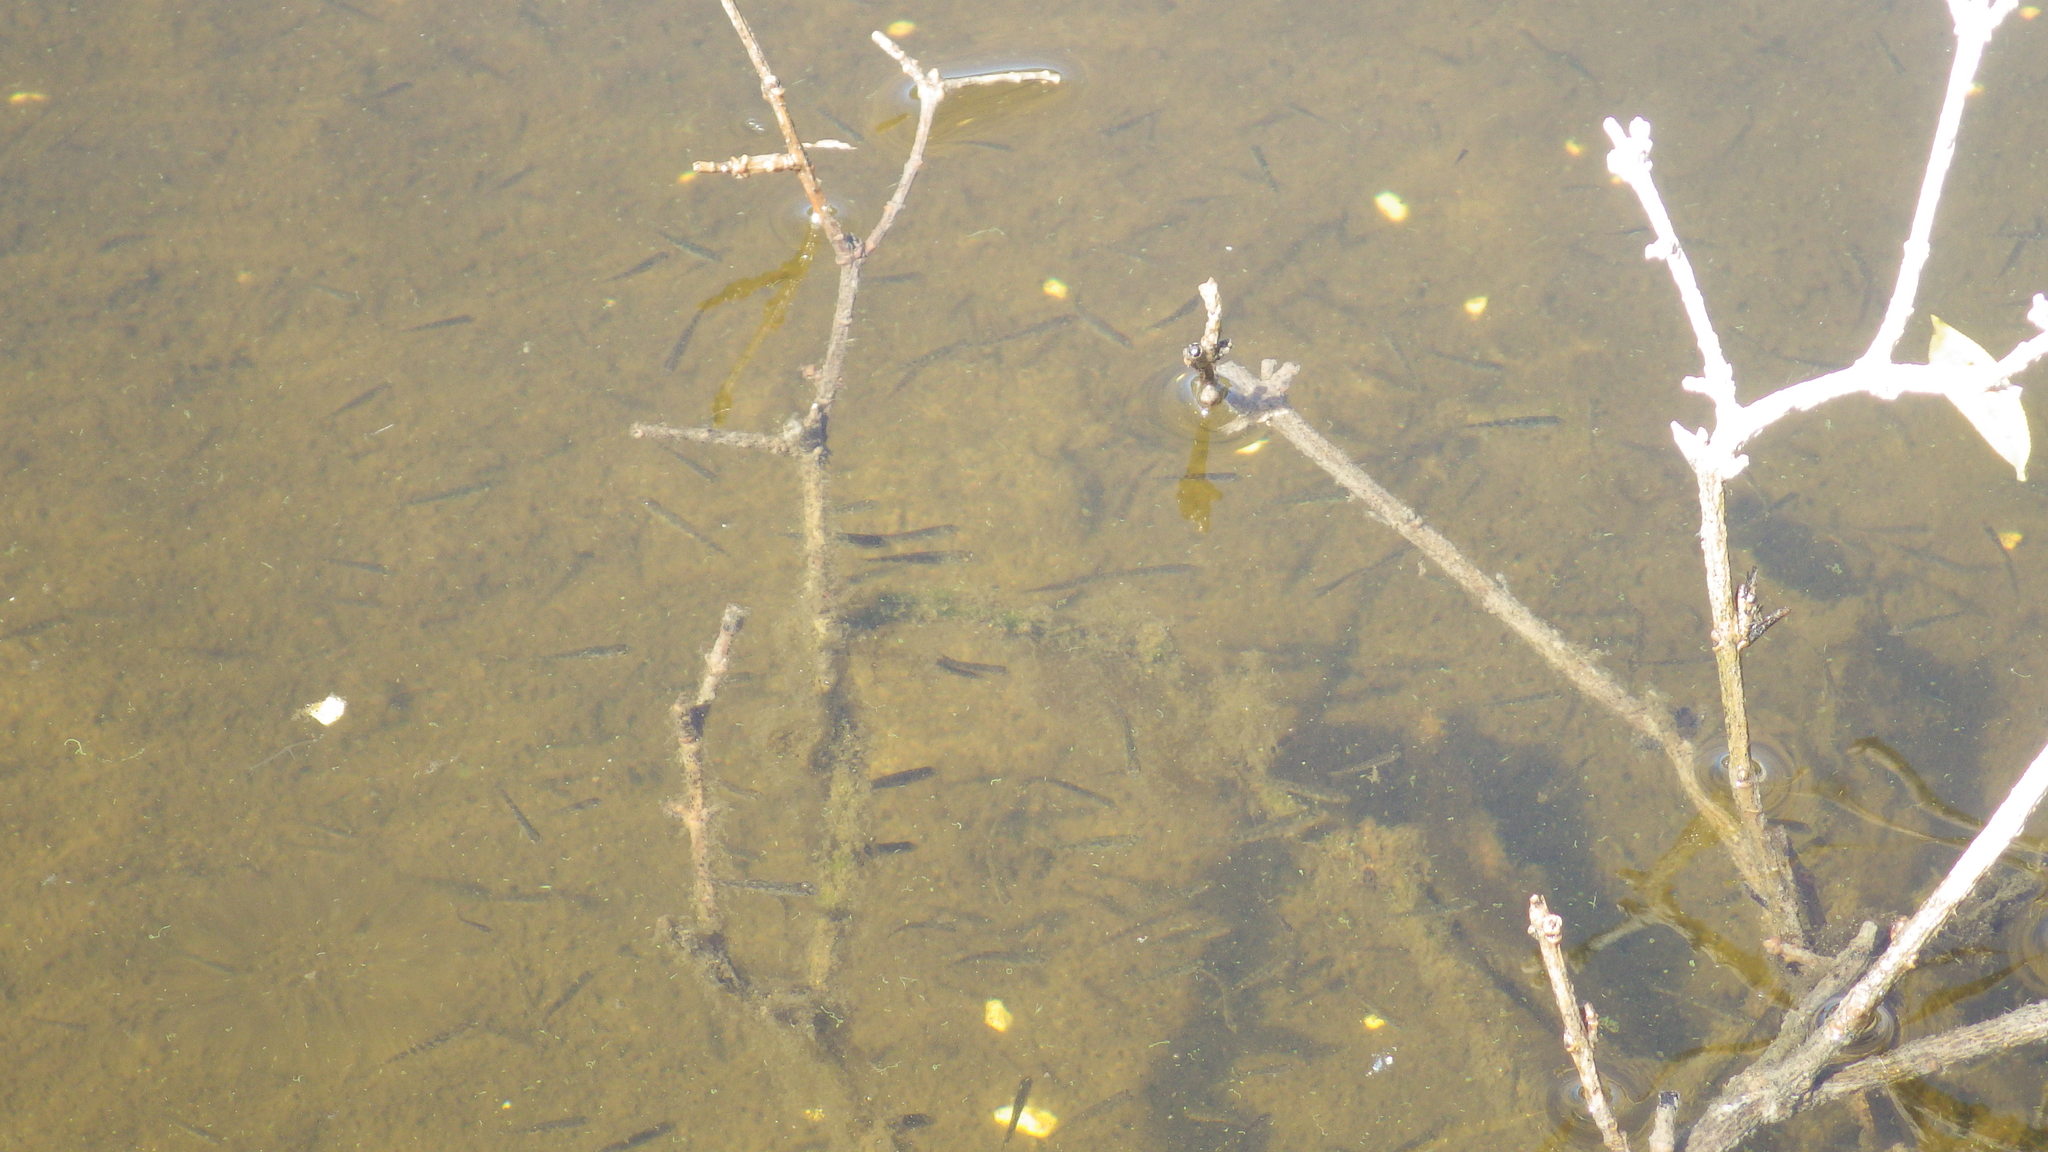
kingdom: Animalia
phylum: Chordata
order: Gasterosteiformes
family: Gasterosteidae
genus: Gasterosteus
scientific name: Gasterosteus aculeatus
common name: Three-spined stickleback
